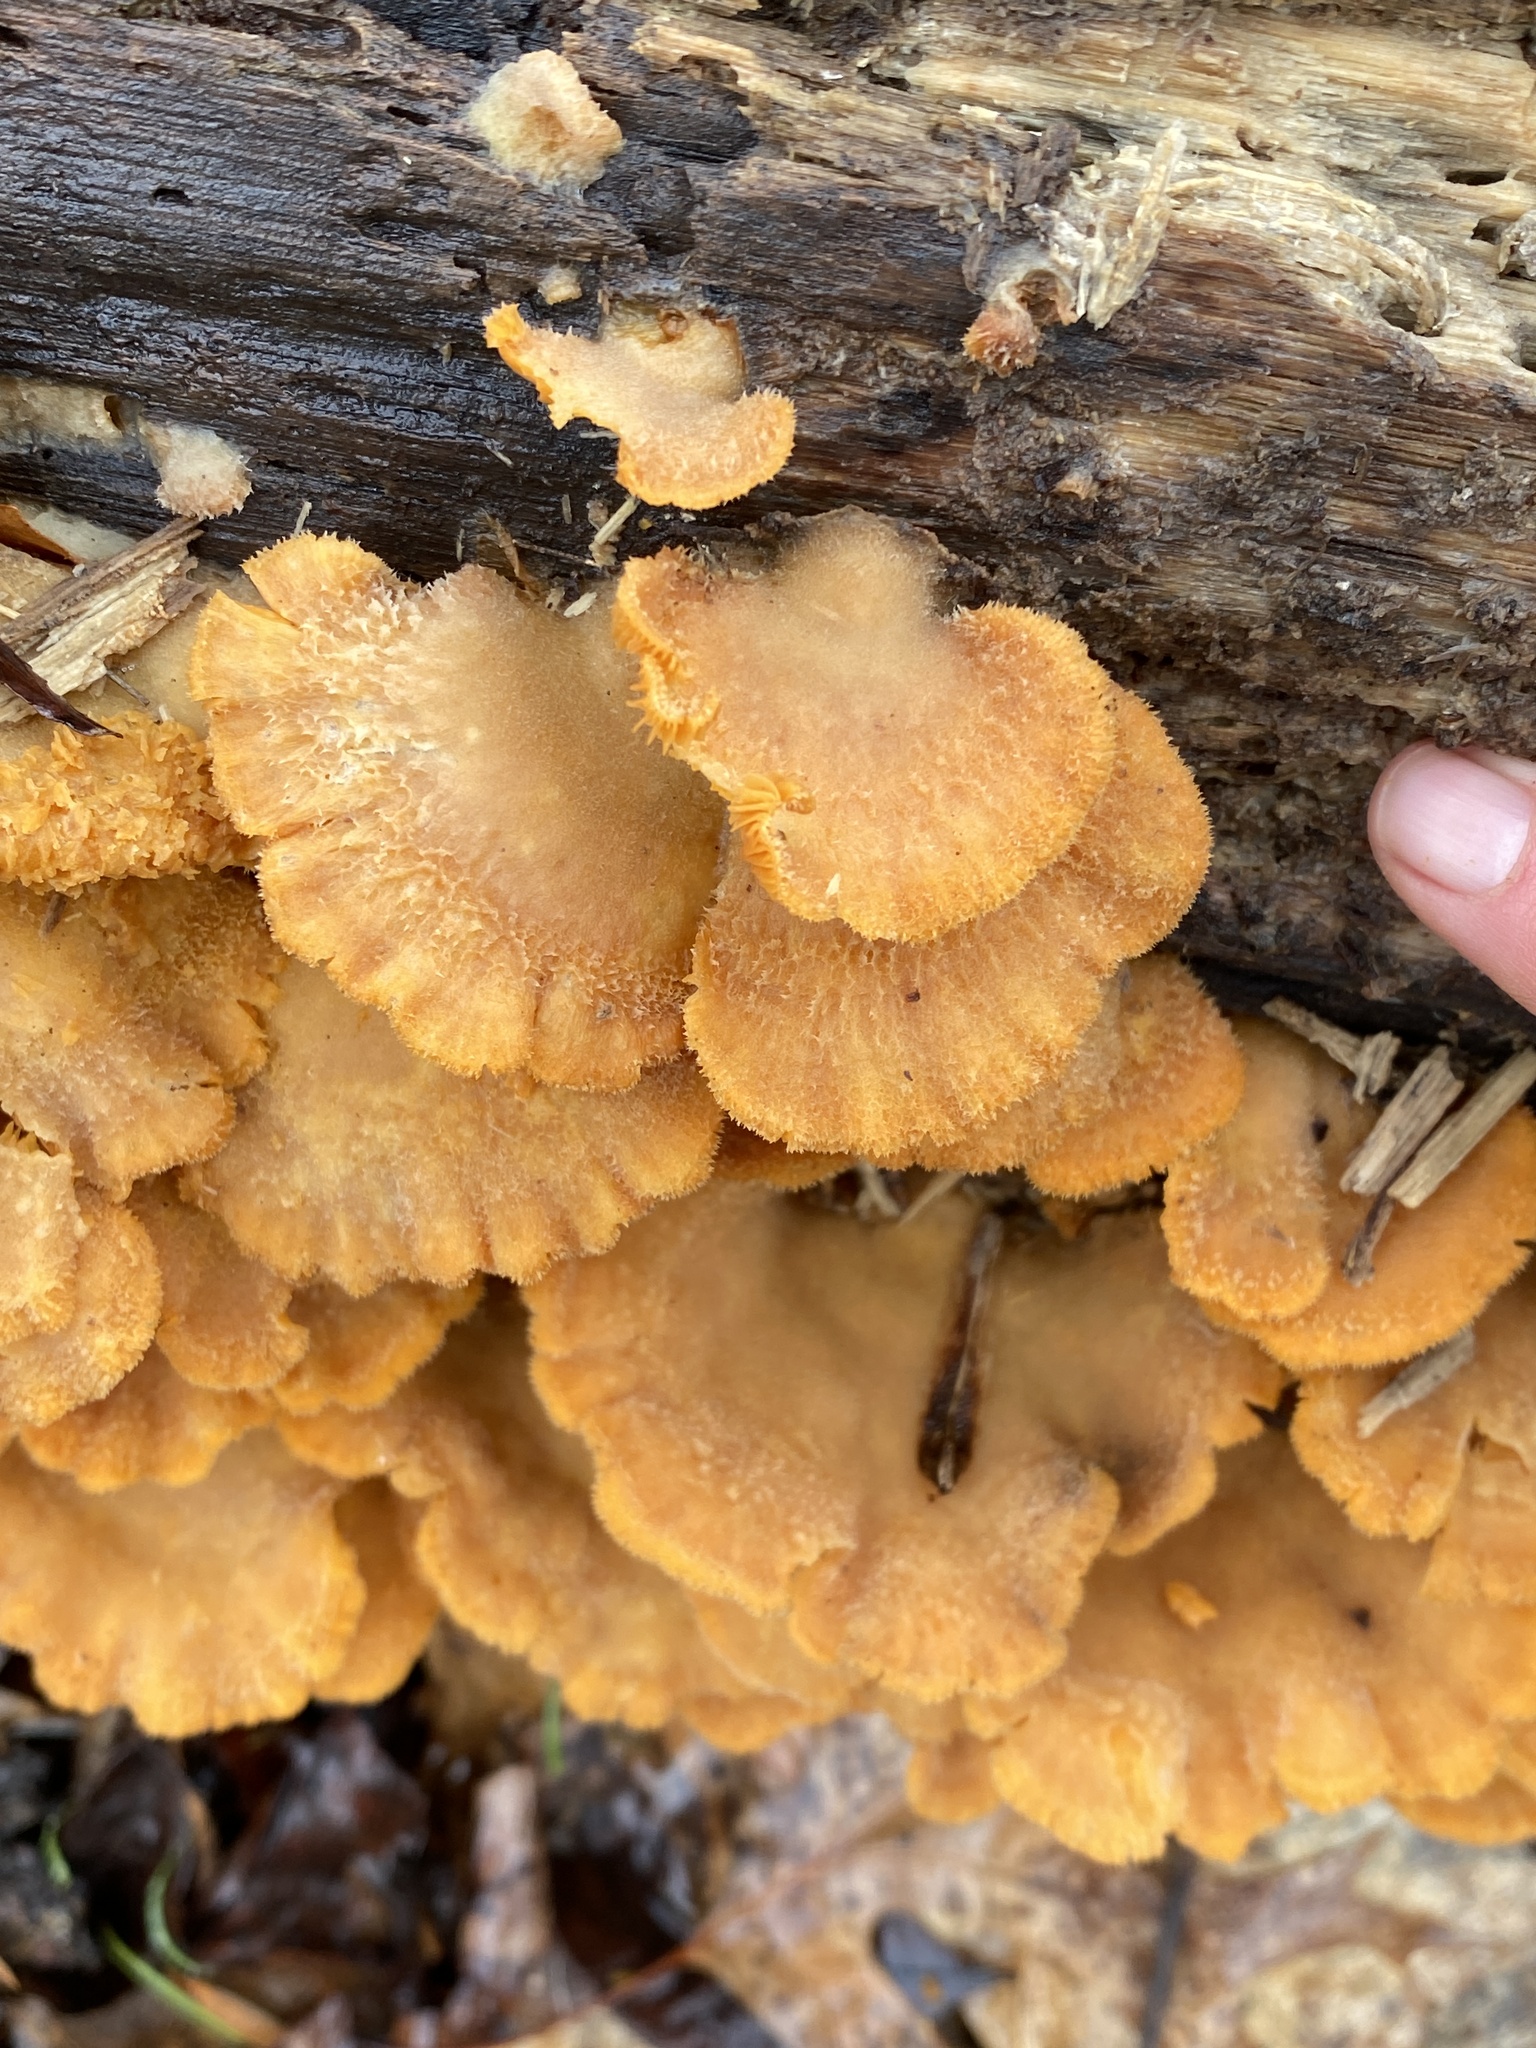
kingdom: Fungi
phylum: Basidiomycota
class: Agaricomycetes
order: Agaricales
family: Phyllotopsidaceae
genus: Phyllotopsis
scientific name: Phyllotopsis nidulans
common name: Orange mock oyster
